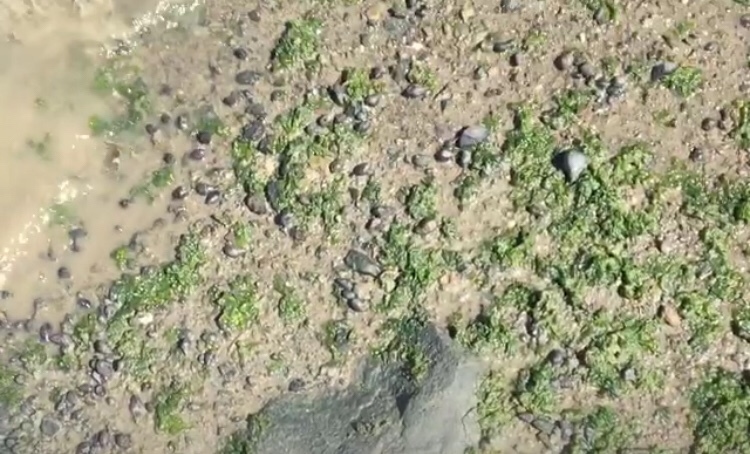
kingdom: Animalia
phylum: Mollusca
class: Gastropoda
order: Neogastropoda
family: Nassariidae
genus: Ilyanassa
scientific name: Ilyanassa obsoleta
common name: Eastern mudsnail
